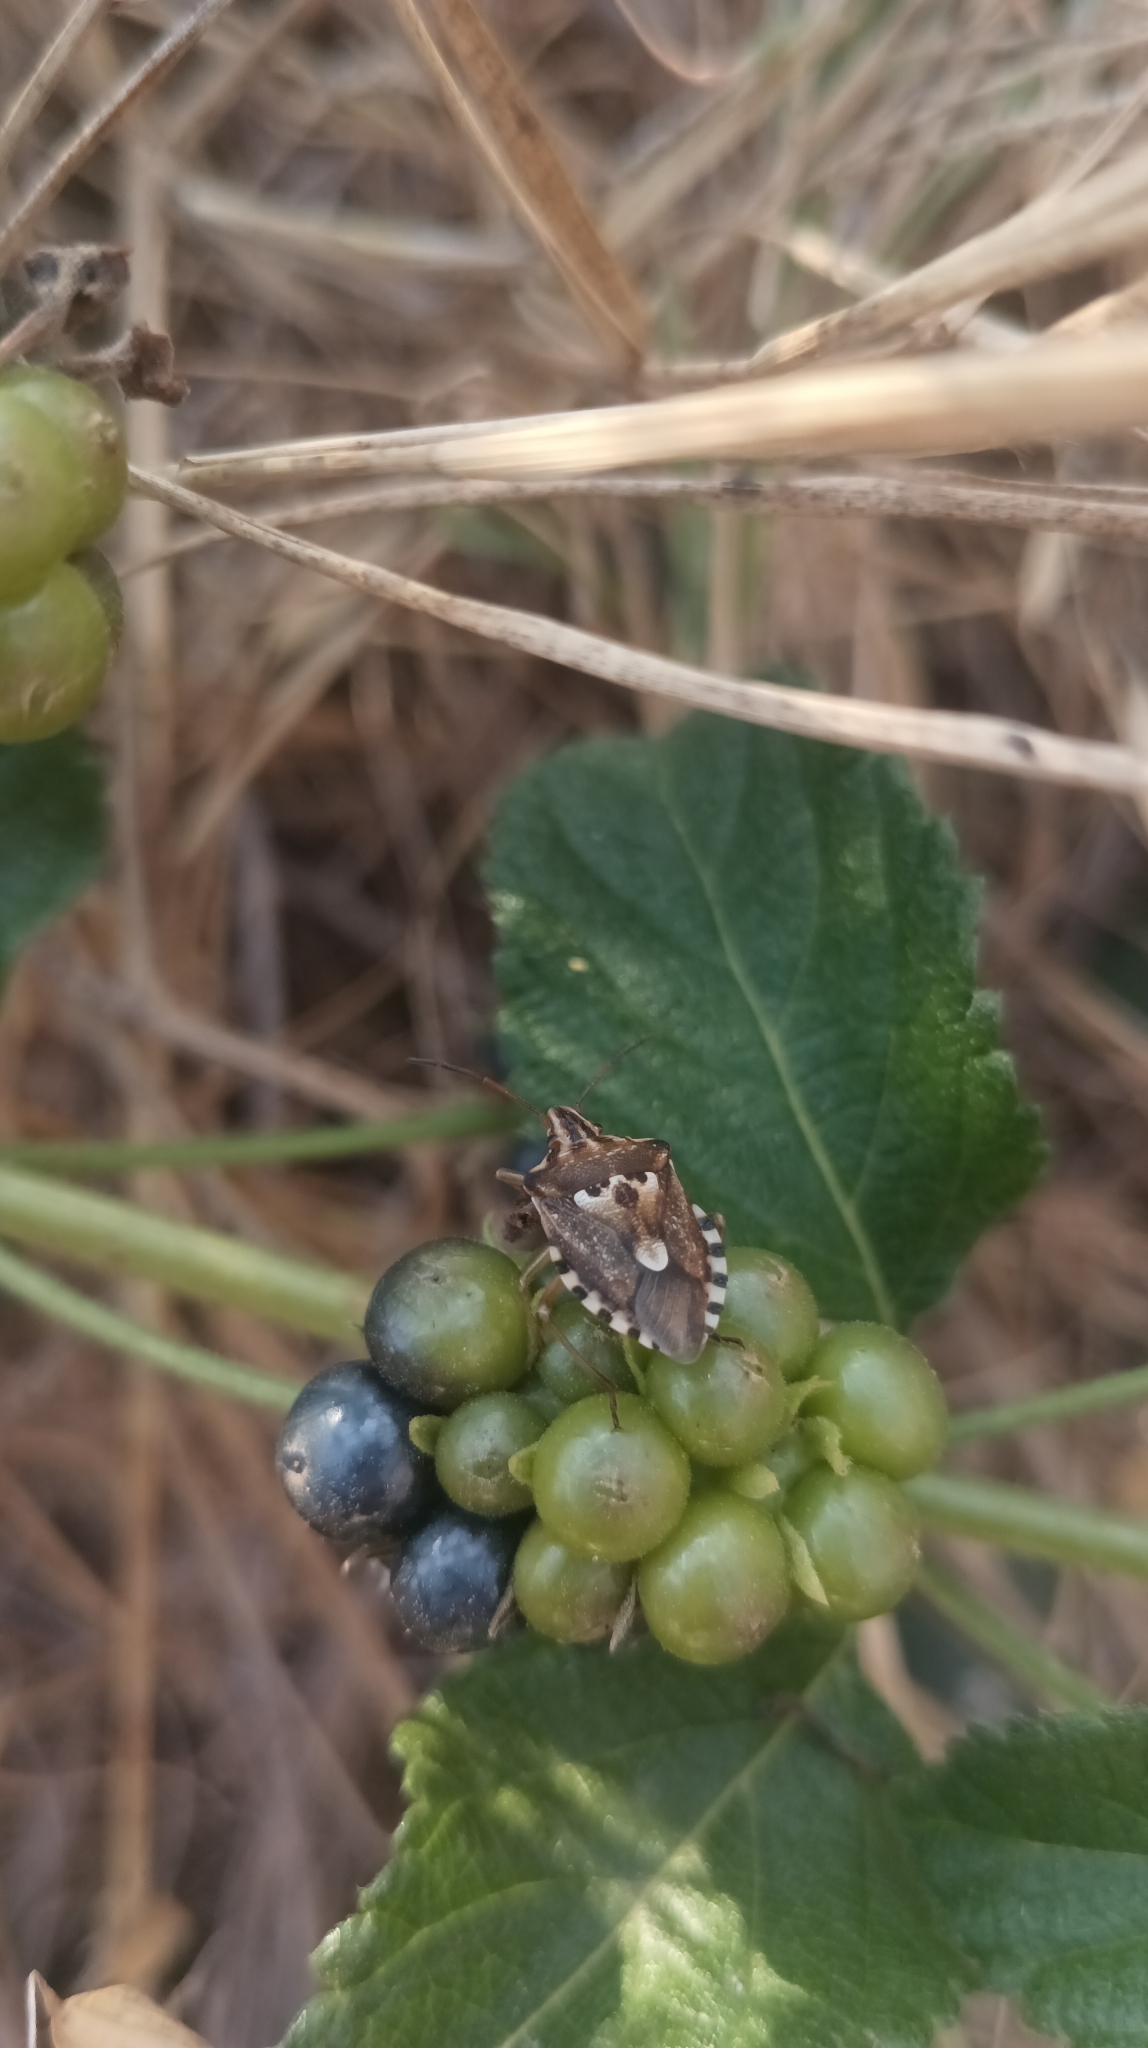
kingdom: Animalia
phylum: Arthropoda
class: Insecta
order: Hemiptera
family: Miridae
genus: Orthops
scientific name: Orthops kalmii
